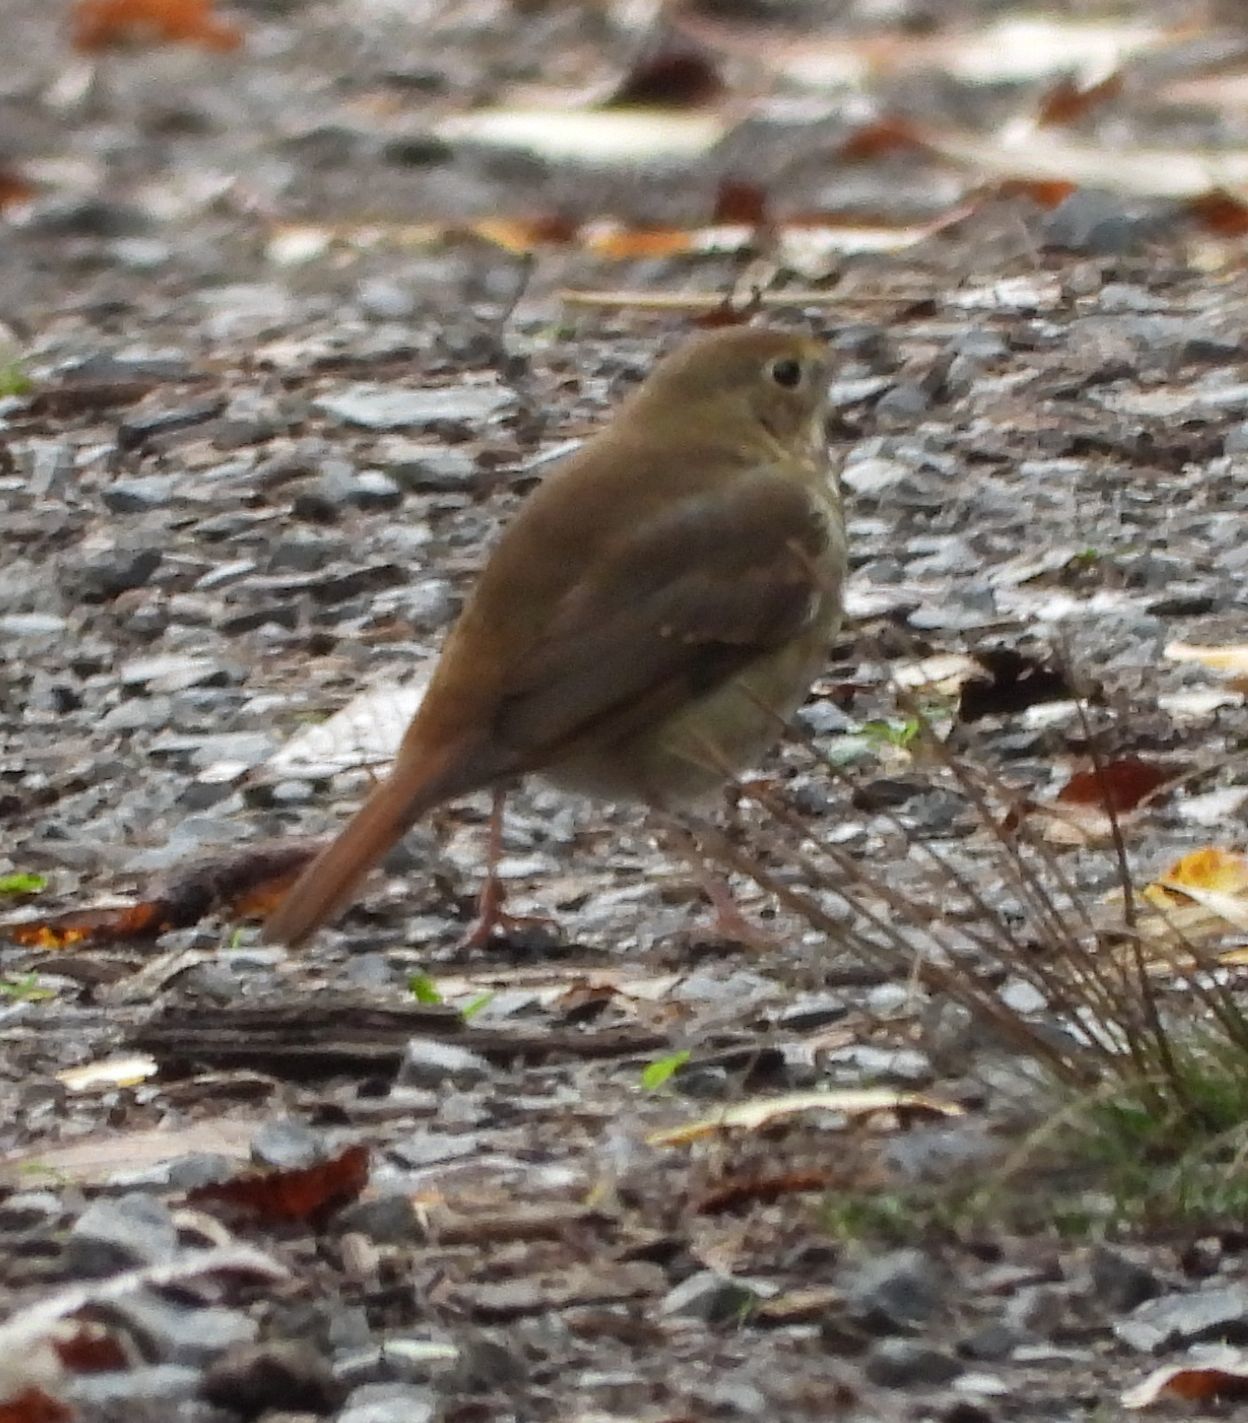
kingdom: Animalia
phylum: Chordata
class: Aves
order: Passeriformes
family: Turdidae
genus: Catharus
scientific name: Catharus guttatus
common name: Hermit thrush
